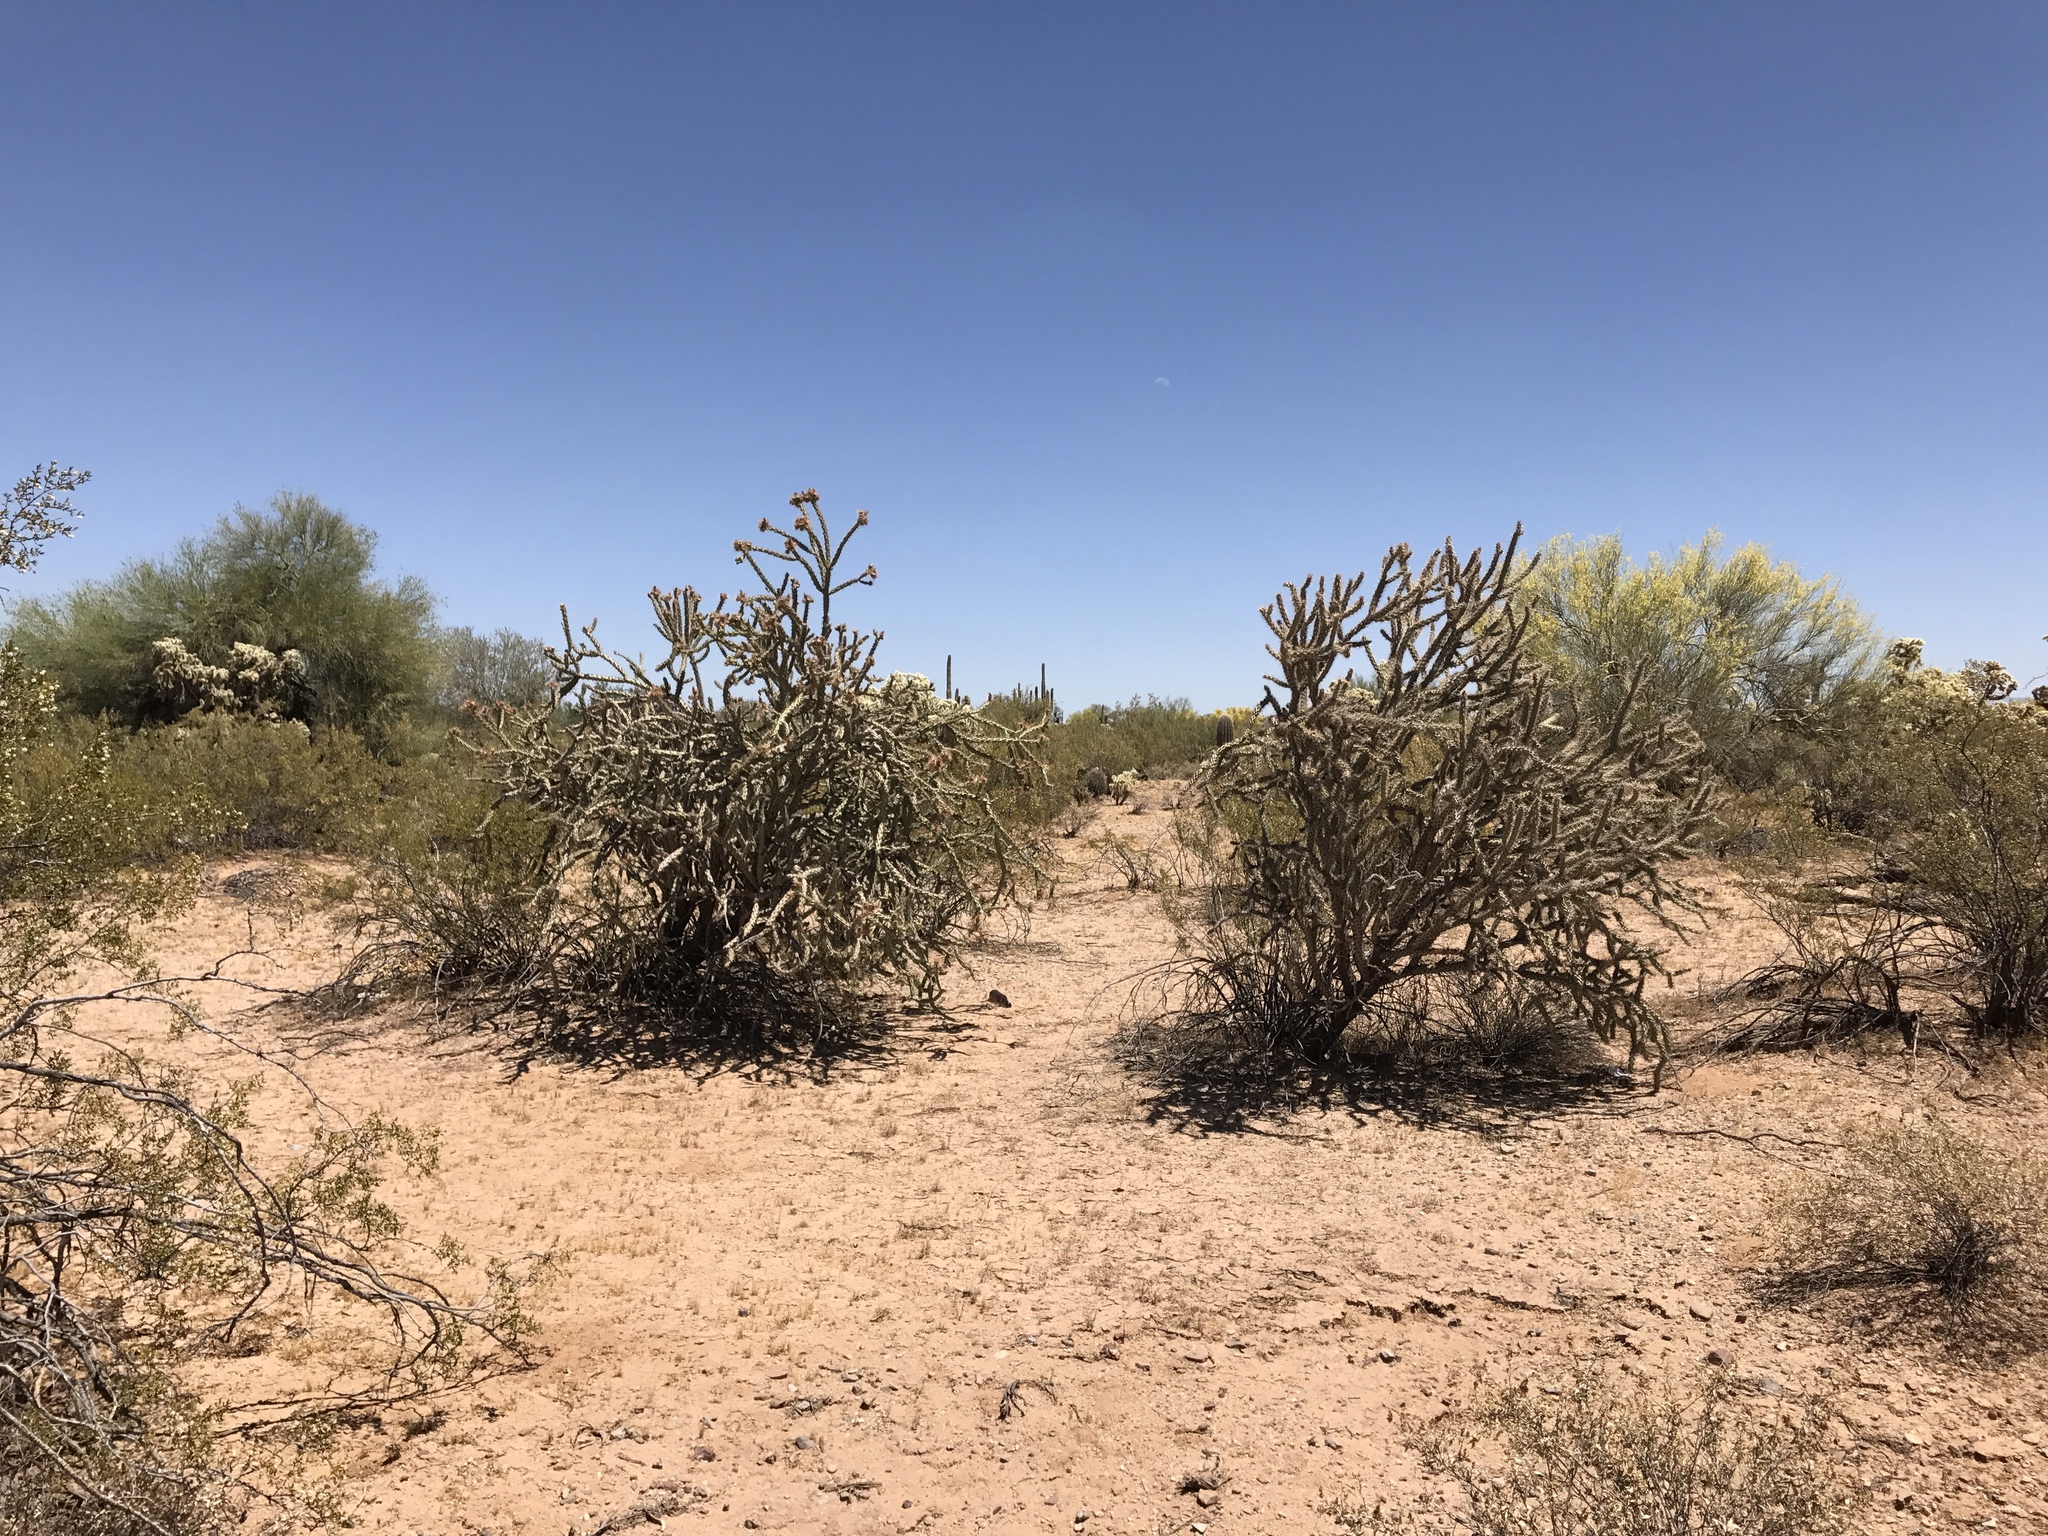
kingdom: Plantae
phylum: Tracheophyta
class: Magnoliopsida
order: Caryophyllales
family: Cactaceae
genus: Cylindropuntia
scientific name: Cylindropuntia acanthocarpa
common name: Buckhorn cholla
